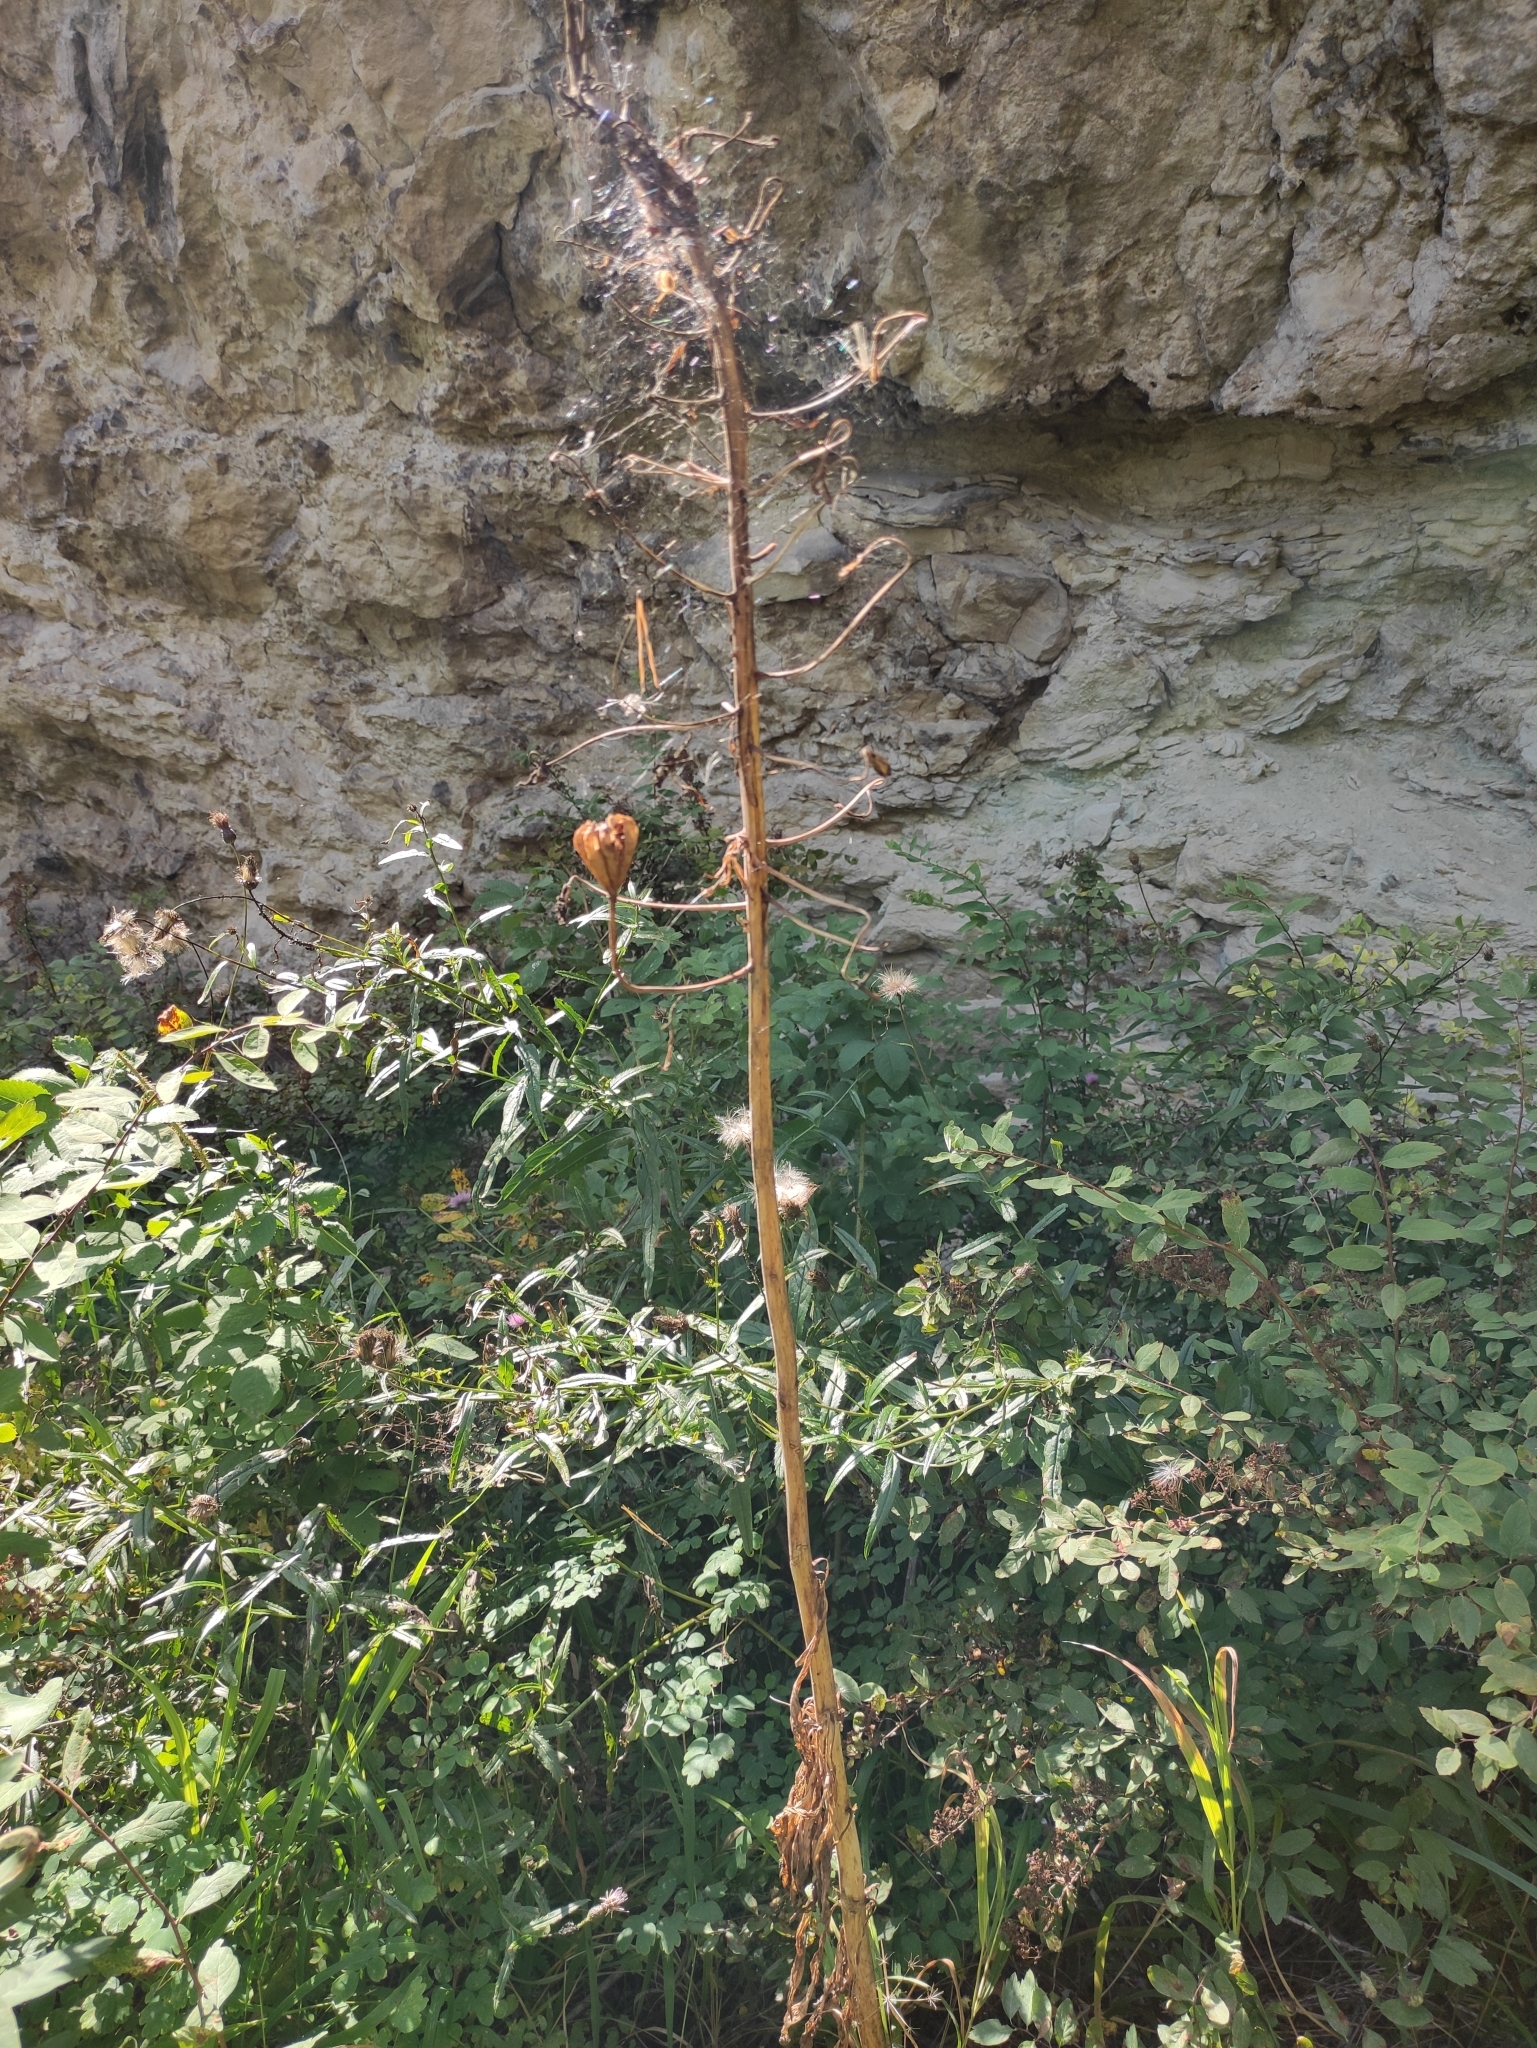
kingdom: Plantae
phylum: Tracheophyta
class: Liliopsida
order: Liliales
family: Liliaceae
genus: Lilium
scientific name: Lilium martagon
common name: Martagon lily
